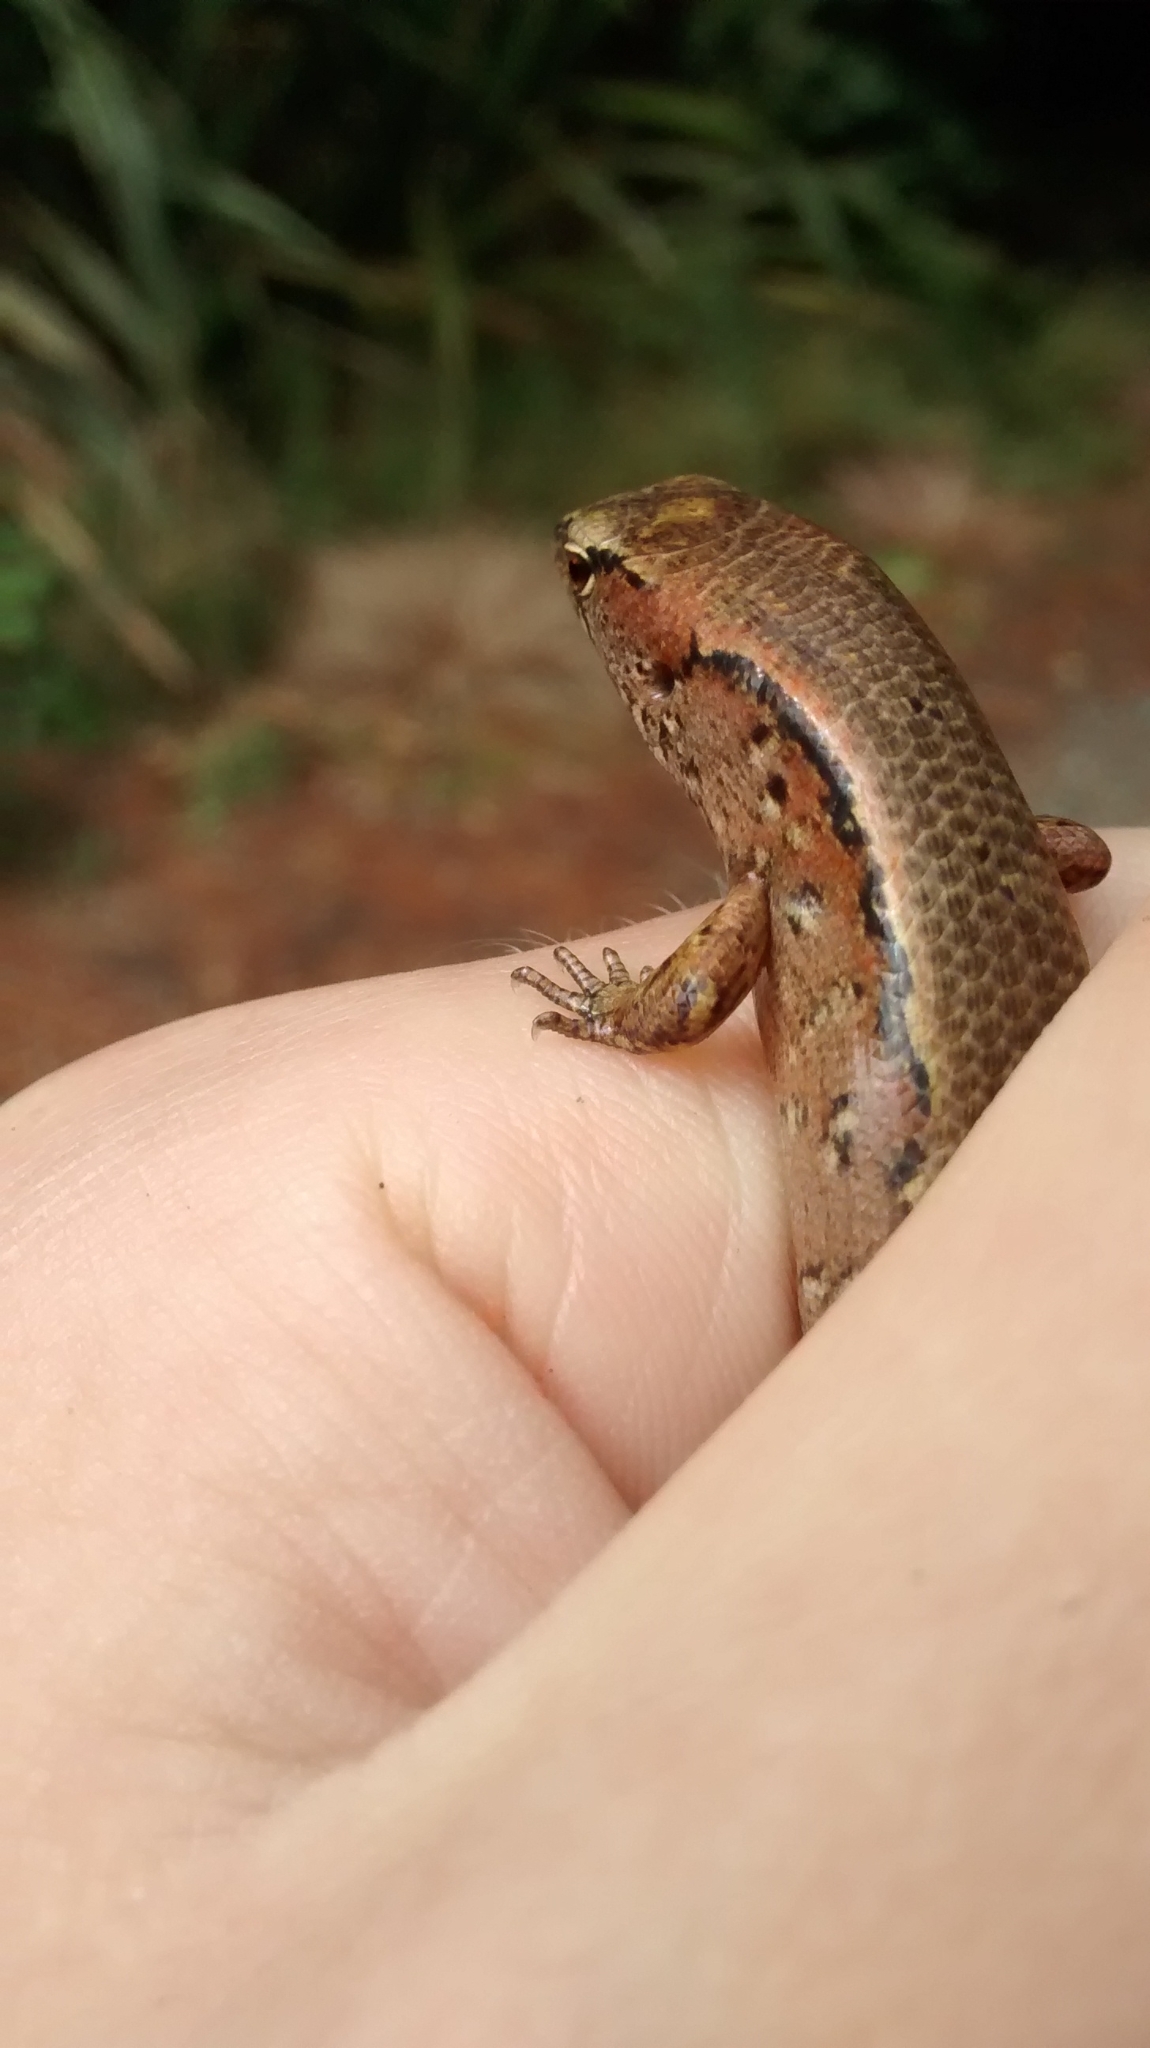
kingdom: Animalia
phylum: Chordata
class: Squamata
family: Scincidae
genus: Oligosoma
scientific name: Oligosoma ornatum
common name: Gray's ornate skink
